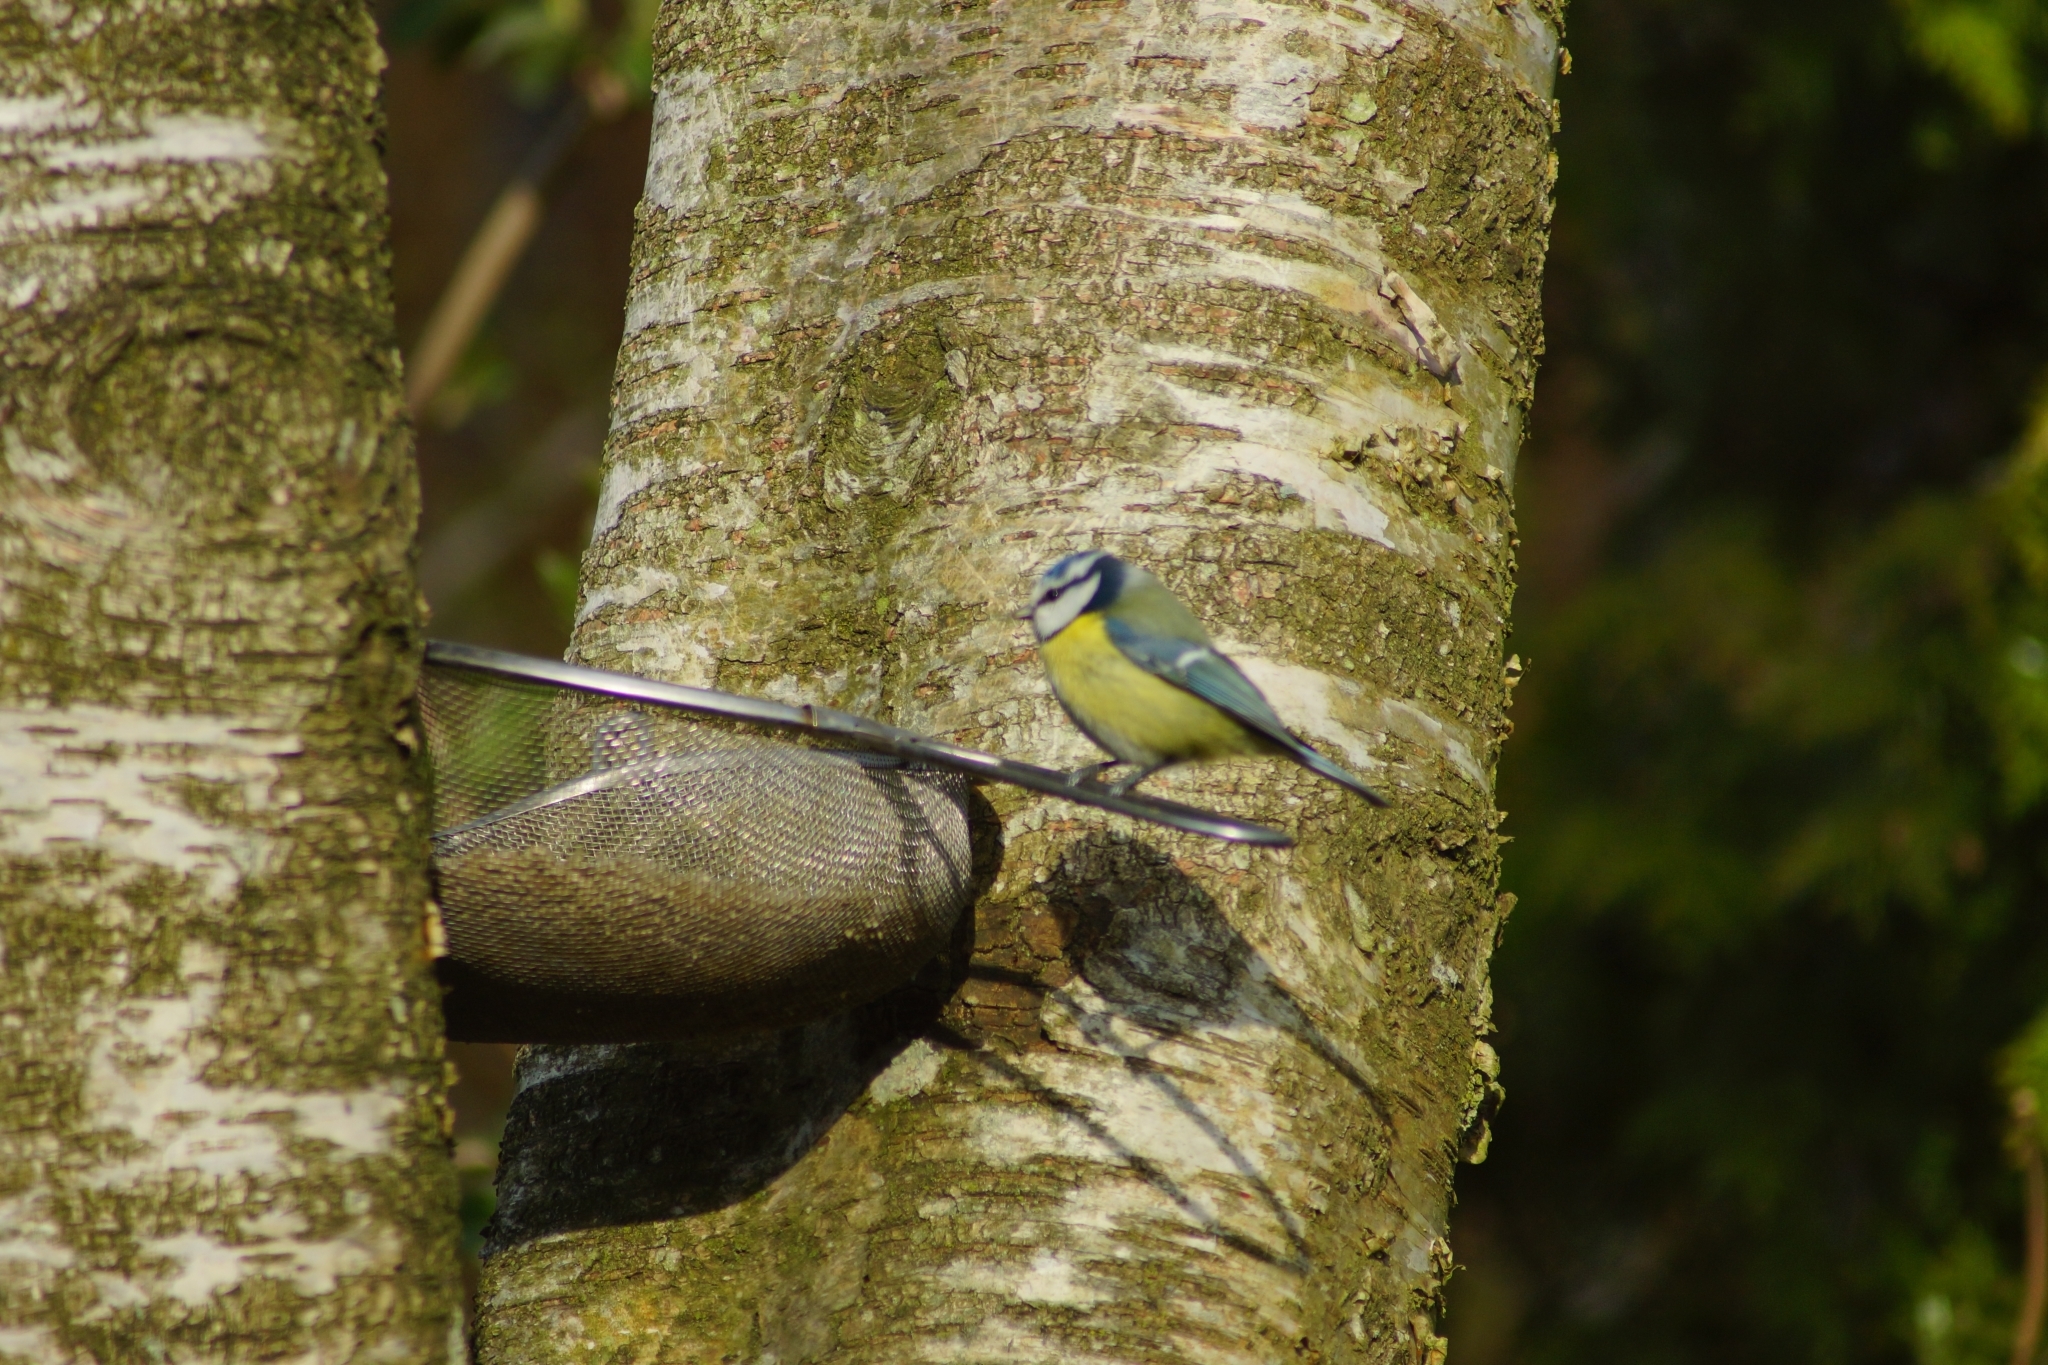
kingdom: Animalia
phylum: Chordata
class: Aves
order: Passeriformes
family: Paridae
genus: Cyanistes
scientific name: Cyanistes caeruleus
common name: Eurasian blue tit
